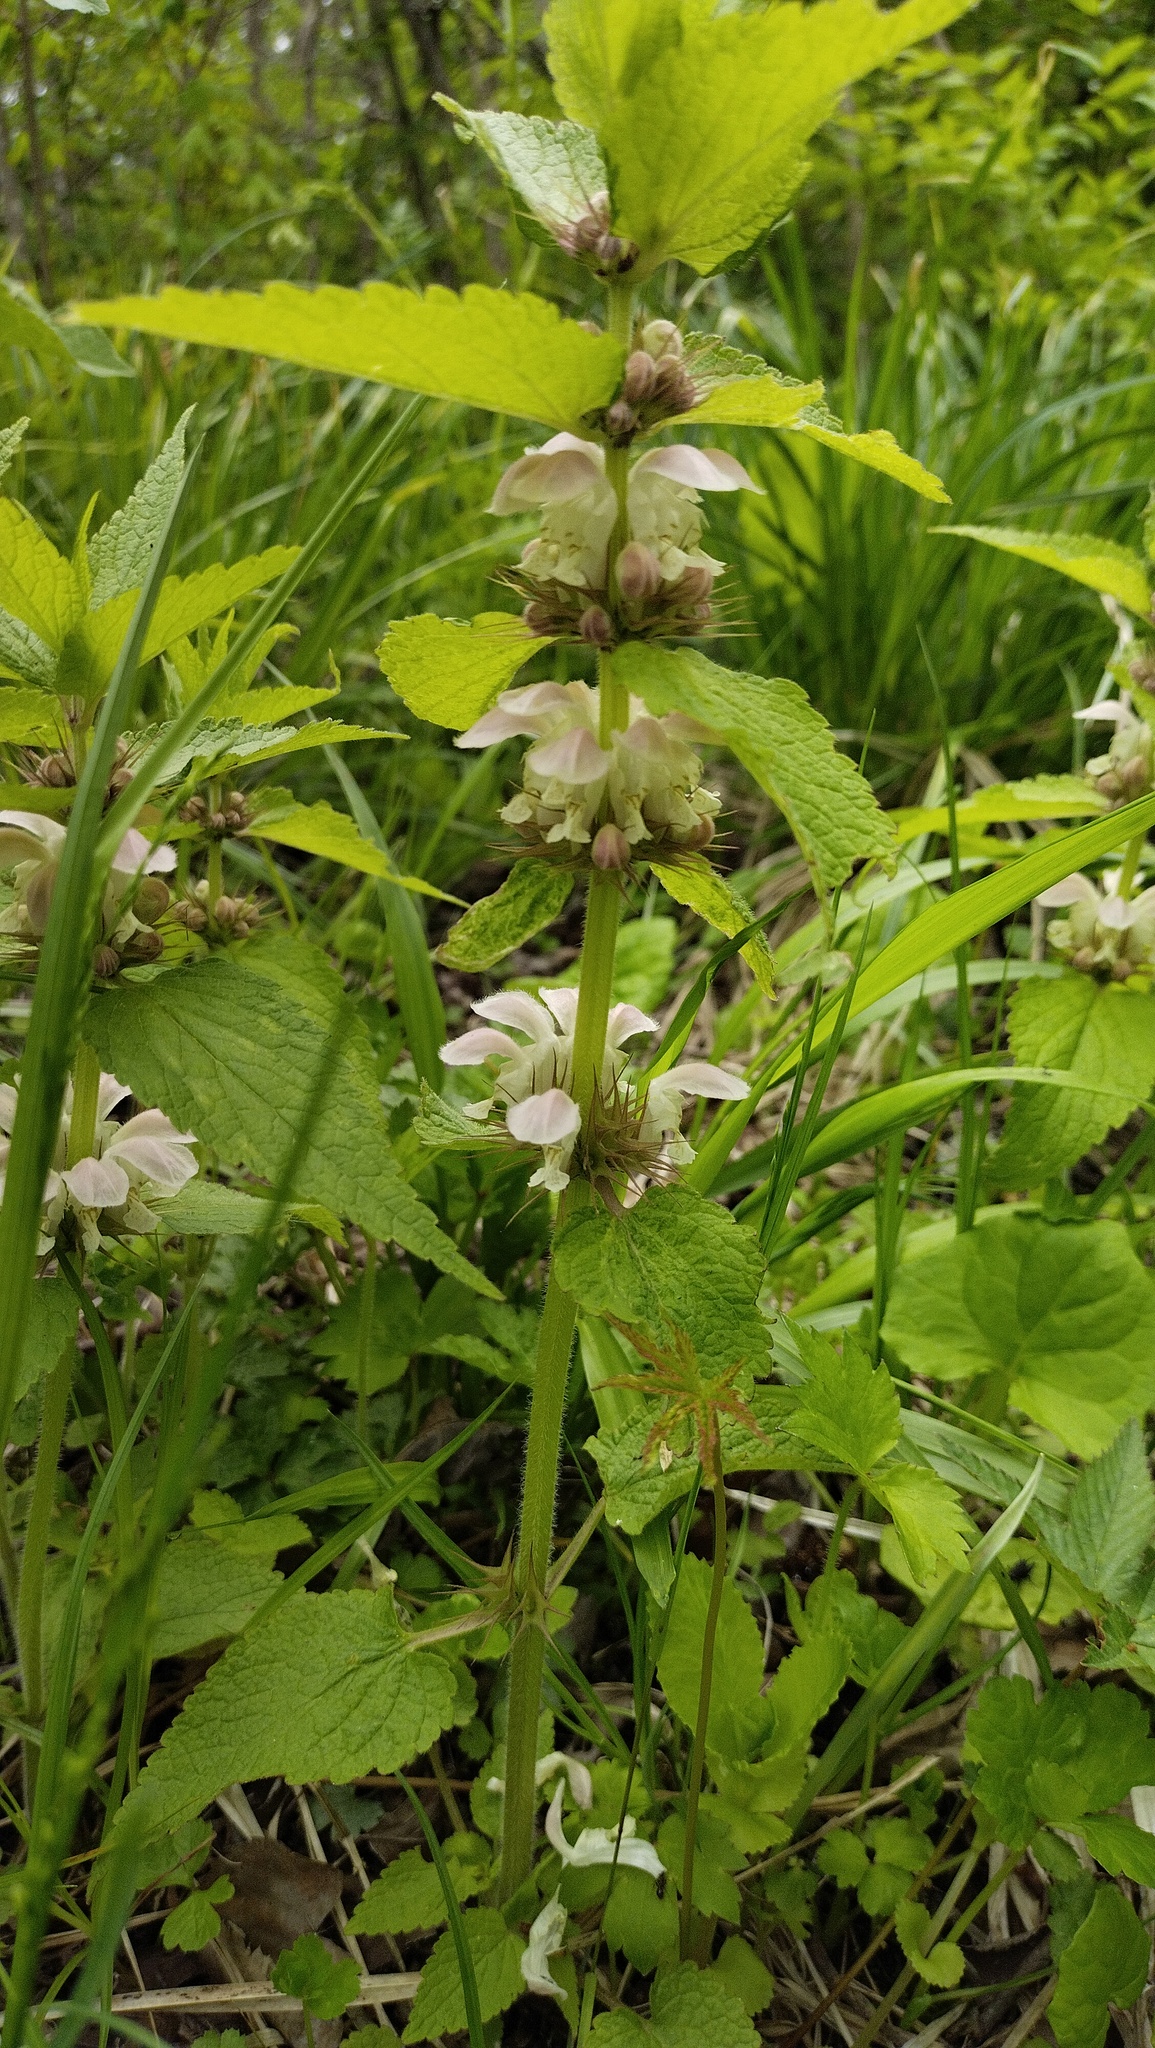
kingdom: Plantae
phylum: Tracheophyta
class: Magnoliopsida
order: Lamiales
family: Lamiaceae
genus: Lamium
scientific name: Lamium album
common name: White dead-nettle
